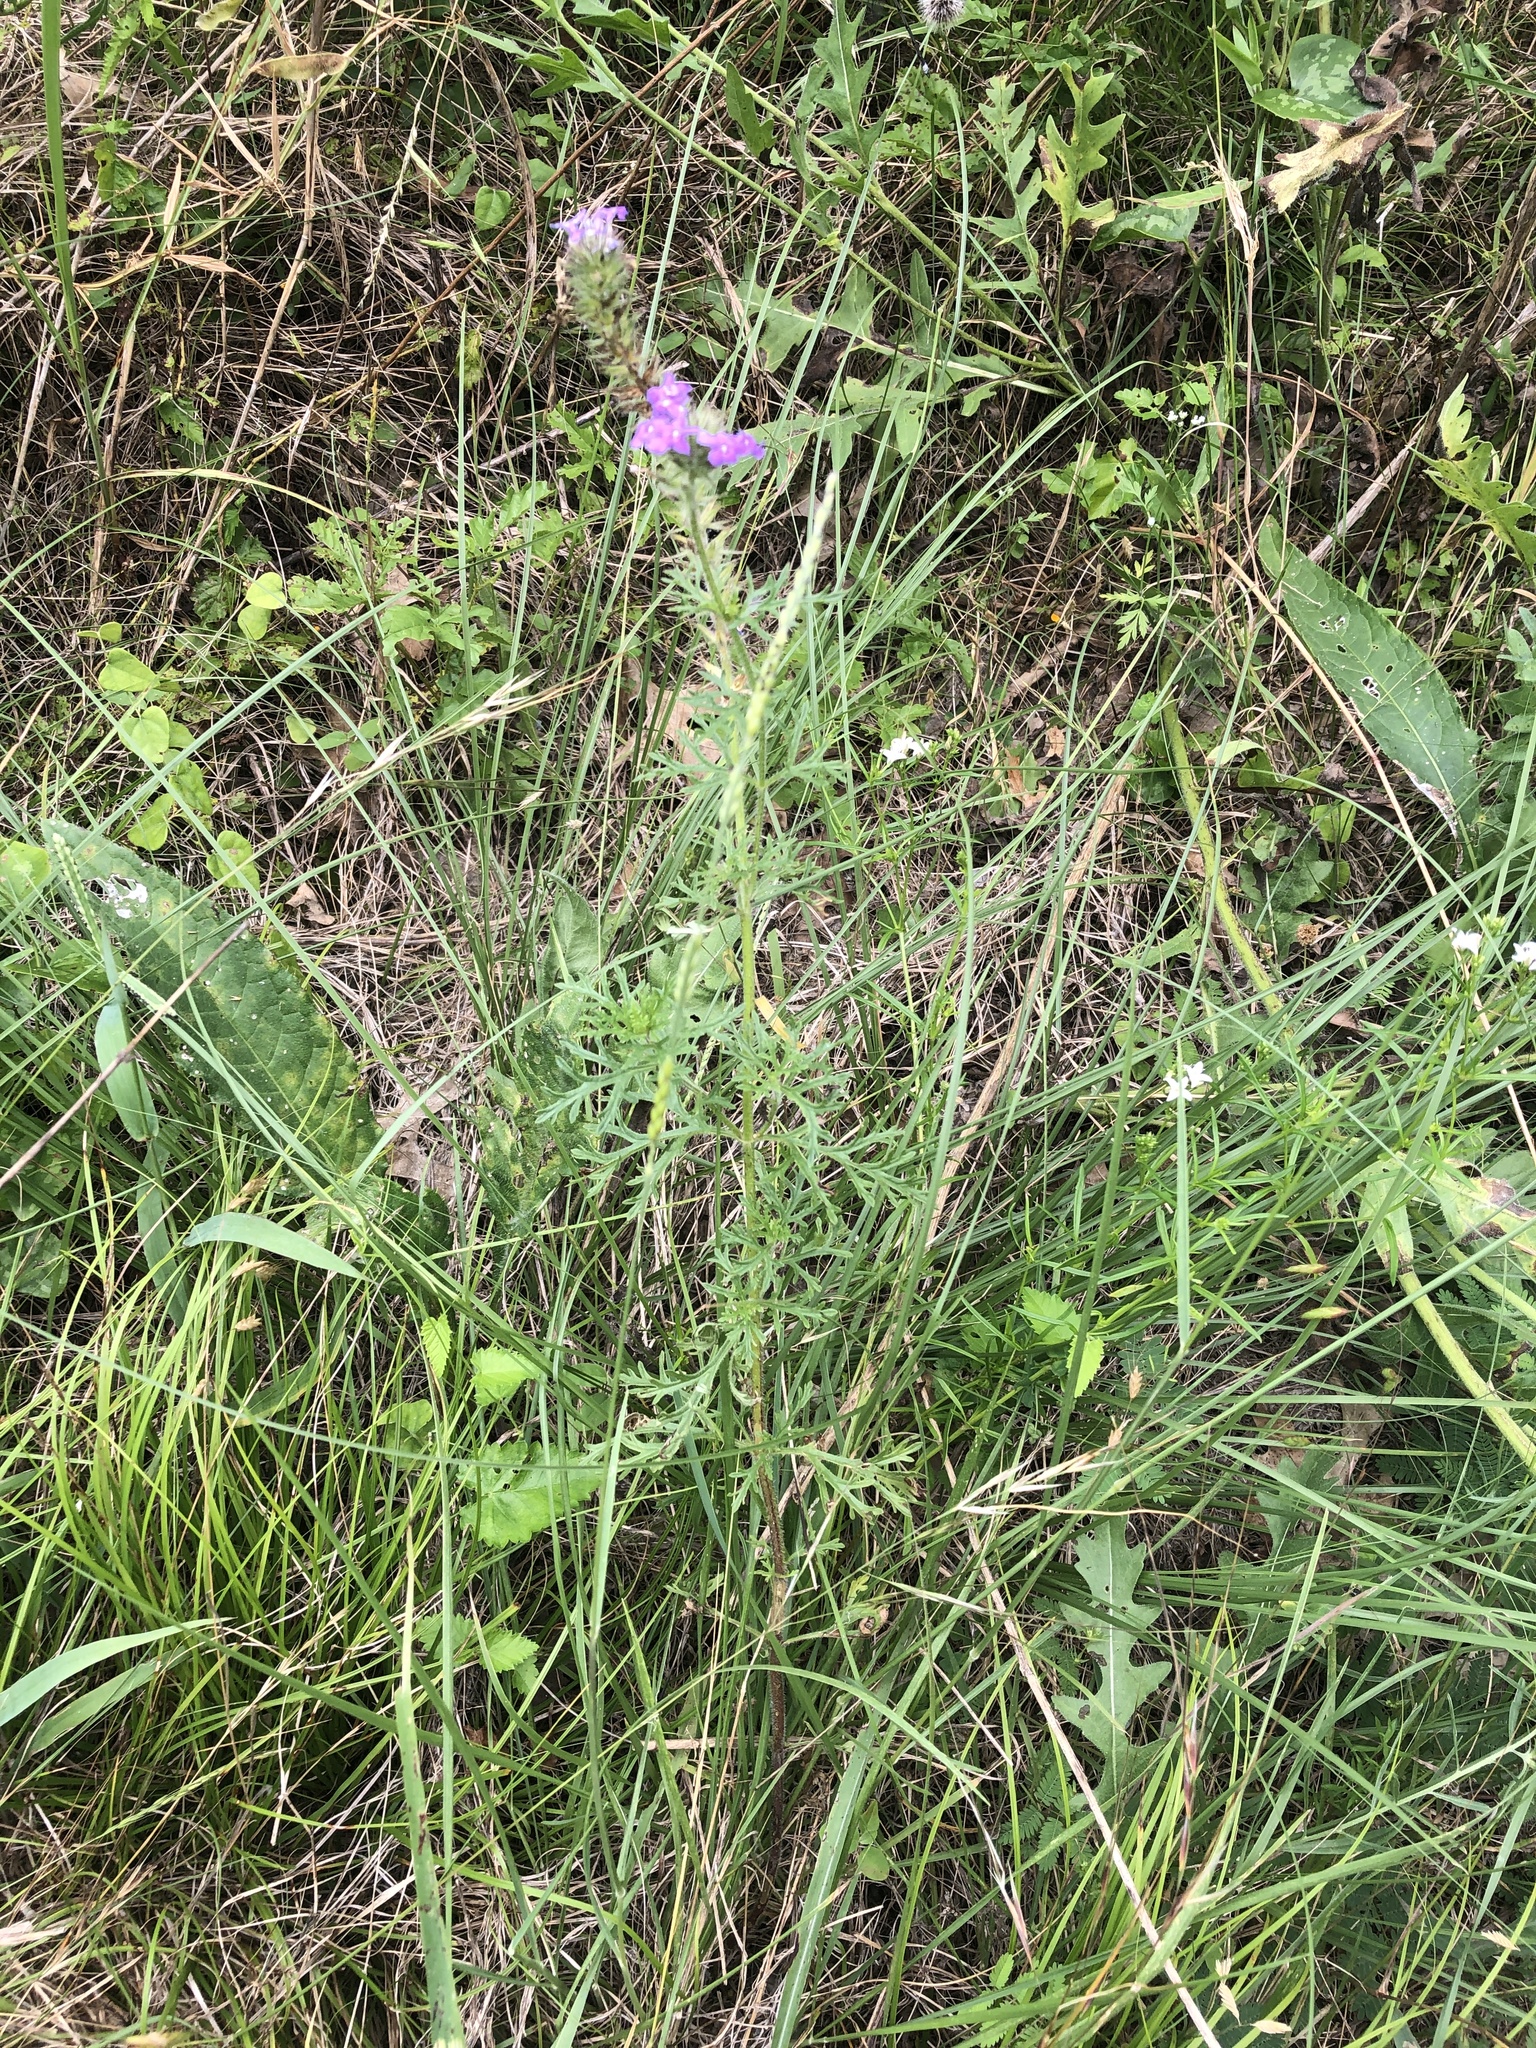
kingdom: Plantae
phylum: Tracheophyta
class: Magnoliopsida
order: Lamiales
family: Verbenaceae
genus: Verbena
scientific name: Verbena bipinnatifida
